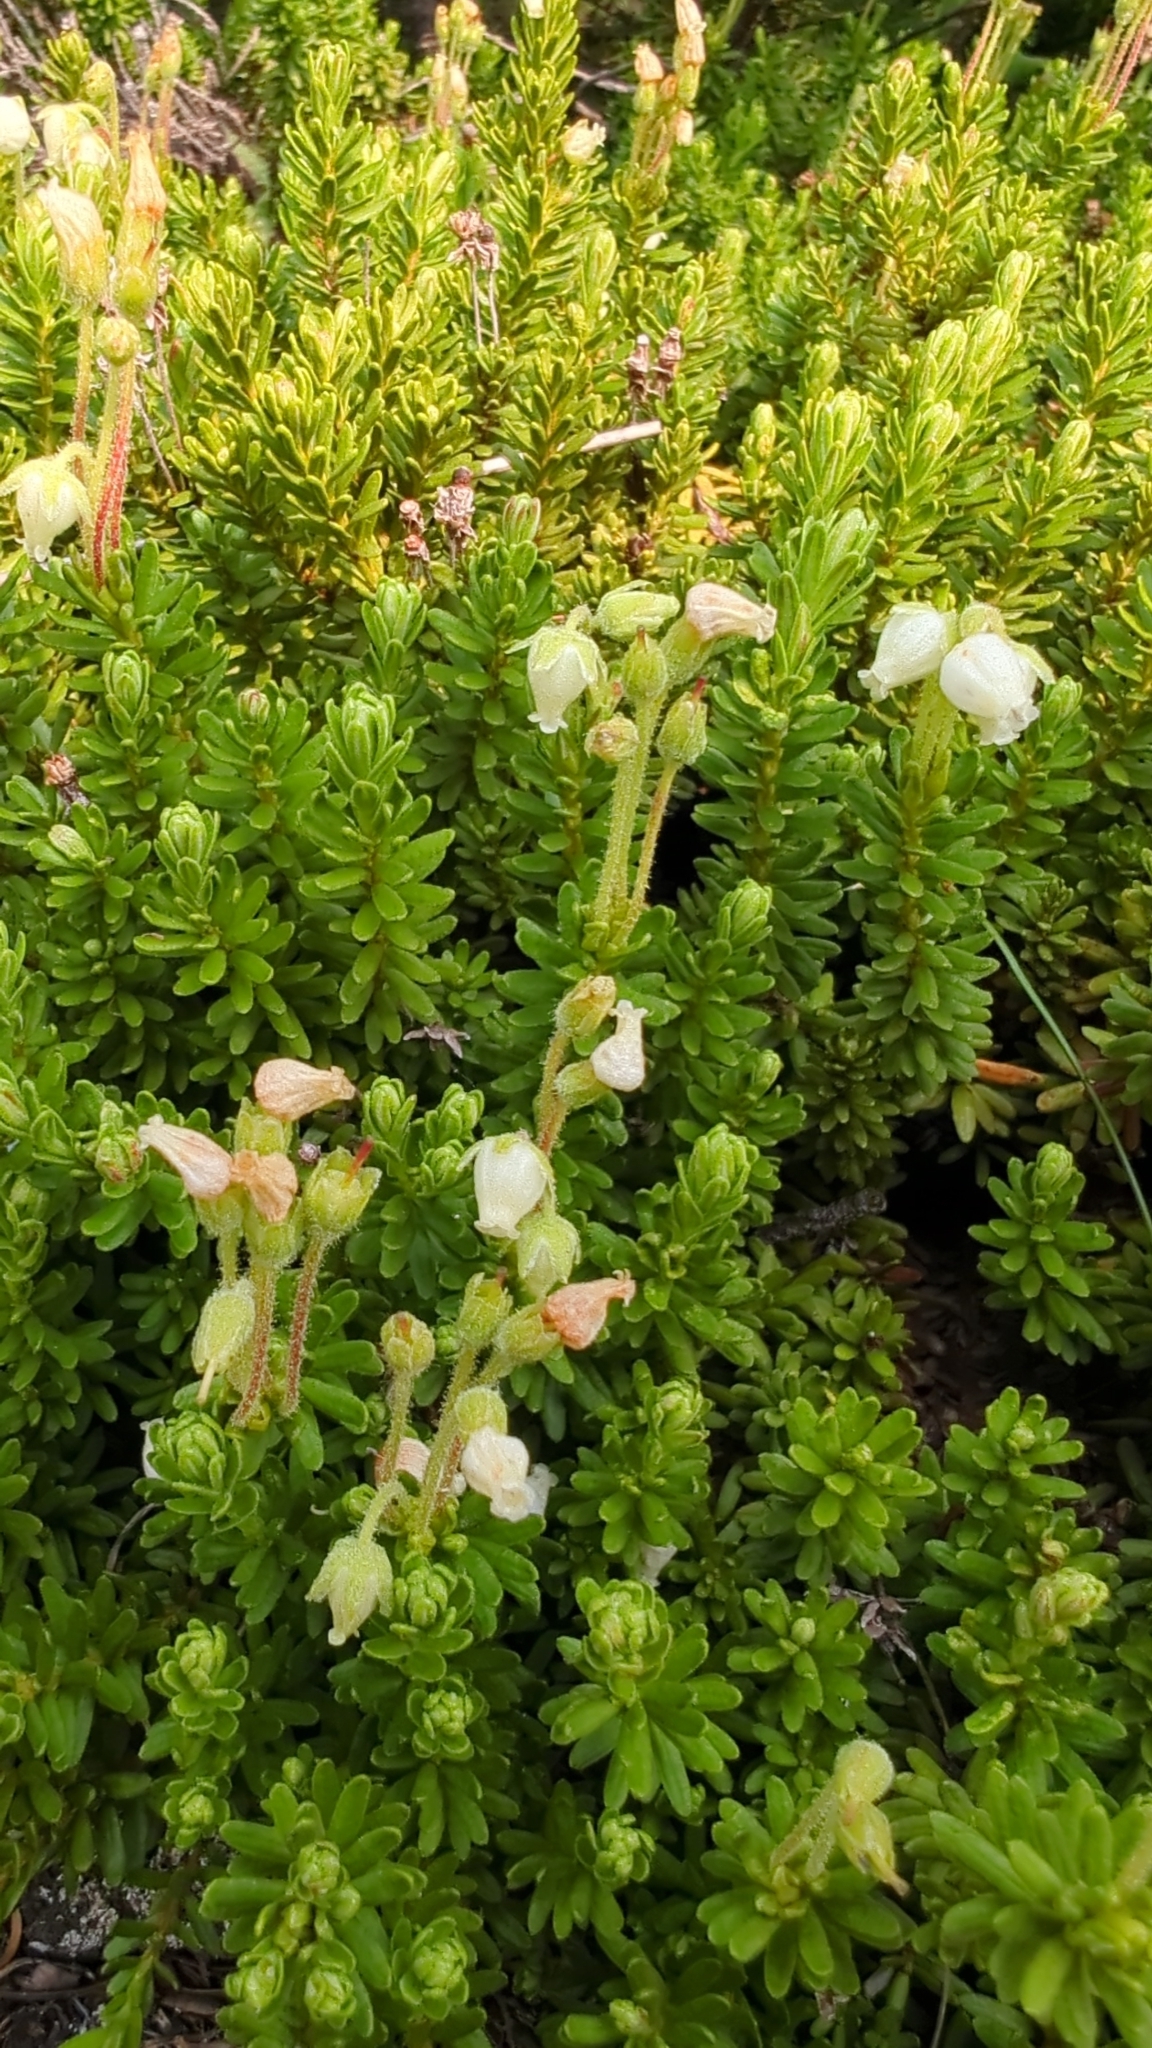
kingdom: Plantae
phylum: Tracheophyta
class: Magnoliopsida
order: Ericales
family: Ericaceae
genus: Phyllodoce
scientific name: Phyllodoce glanduliflora
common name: Cream mountain heather
